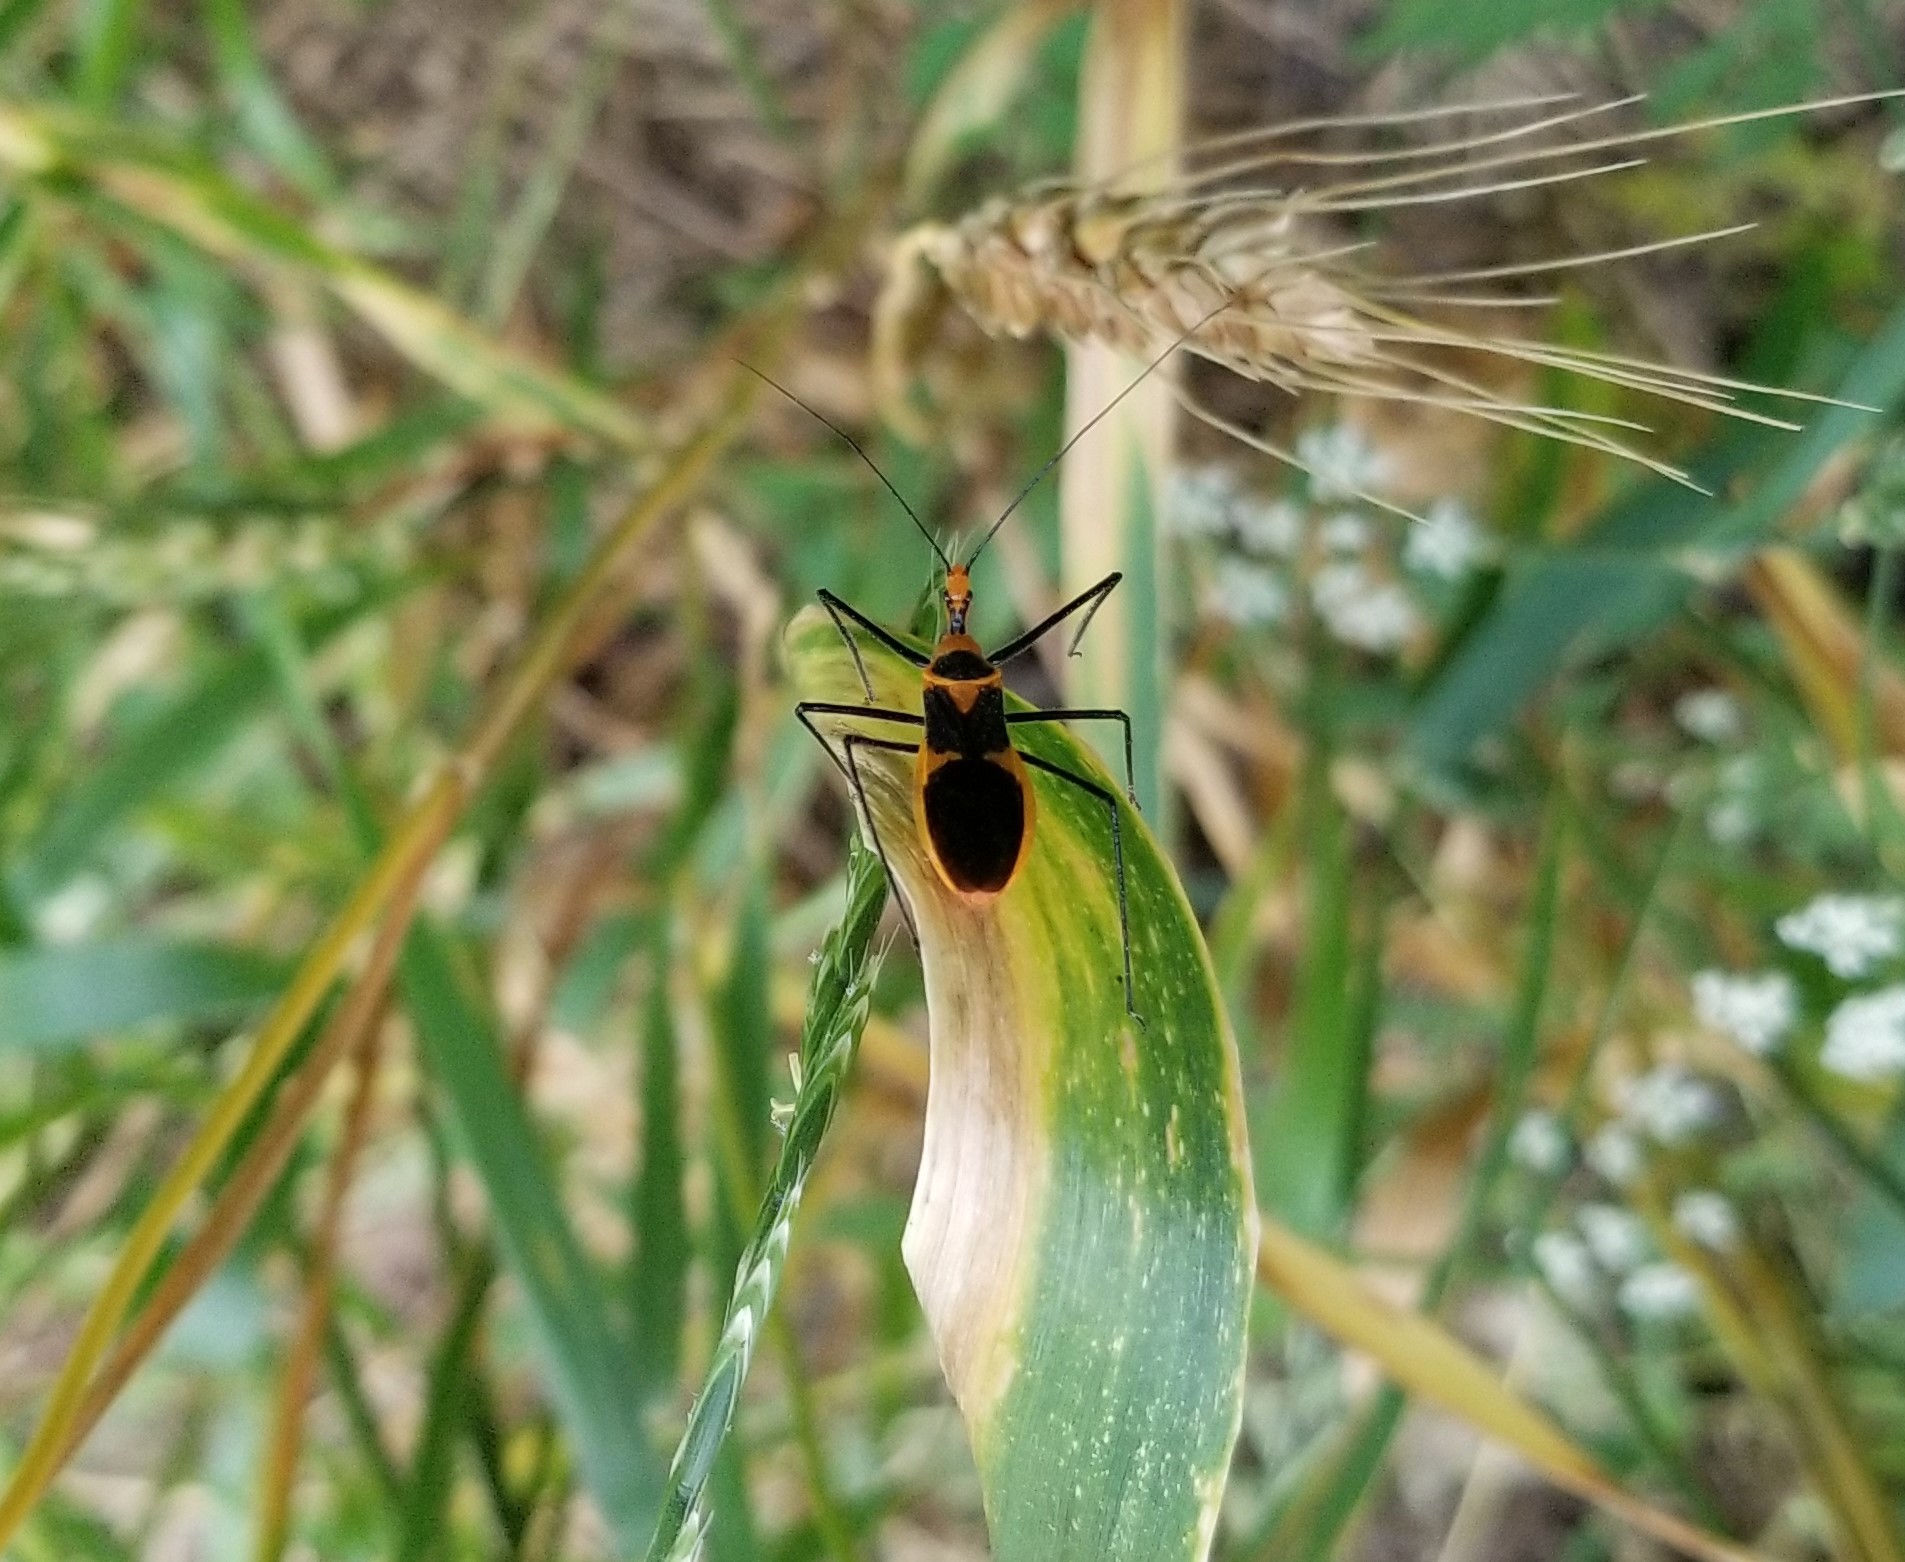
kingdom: Animalia
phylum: Arthropoda
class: Insecta
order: Hemiptera
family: Reduviidae
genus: Zelus
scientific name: Zelus longipes
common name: Milkweed assassin bug
